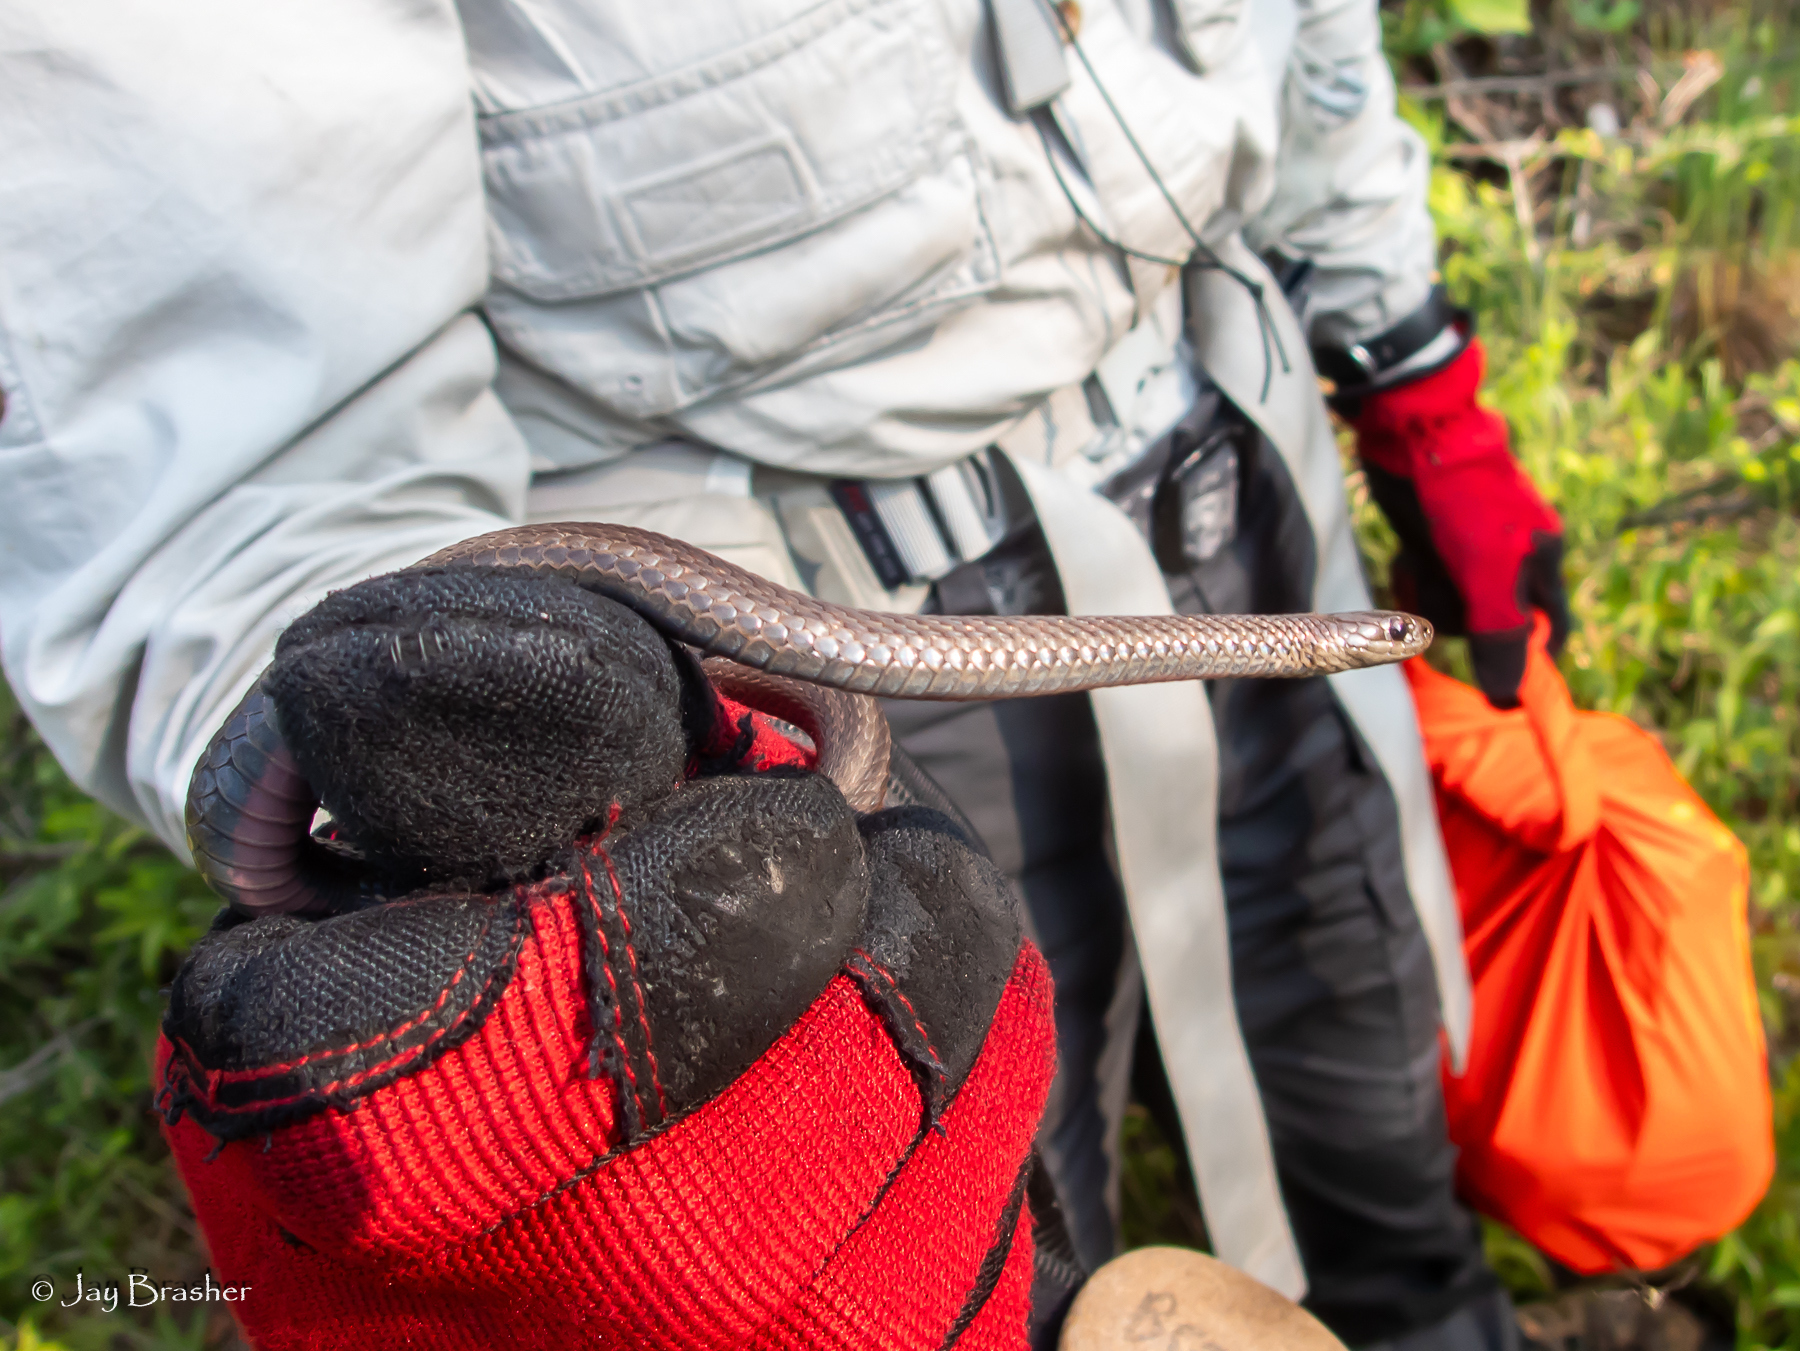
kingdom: Animalia
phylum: Chordata
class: Squamata
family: Colubridae
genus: Storeria
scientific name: Storeria occipitomaculata
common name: Redbelly snake
